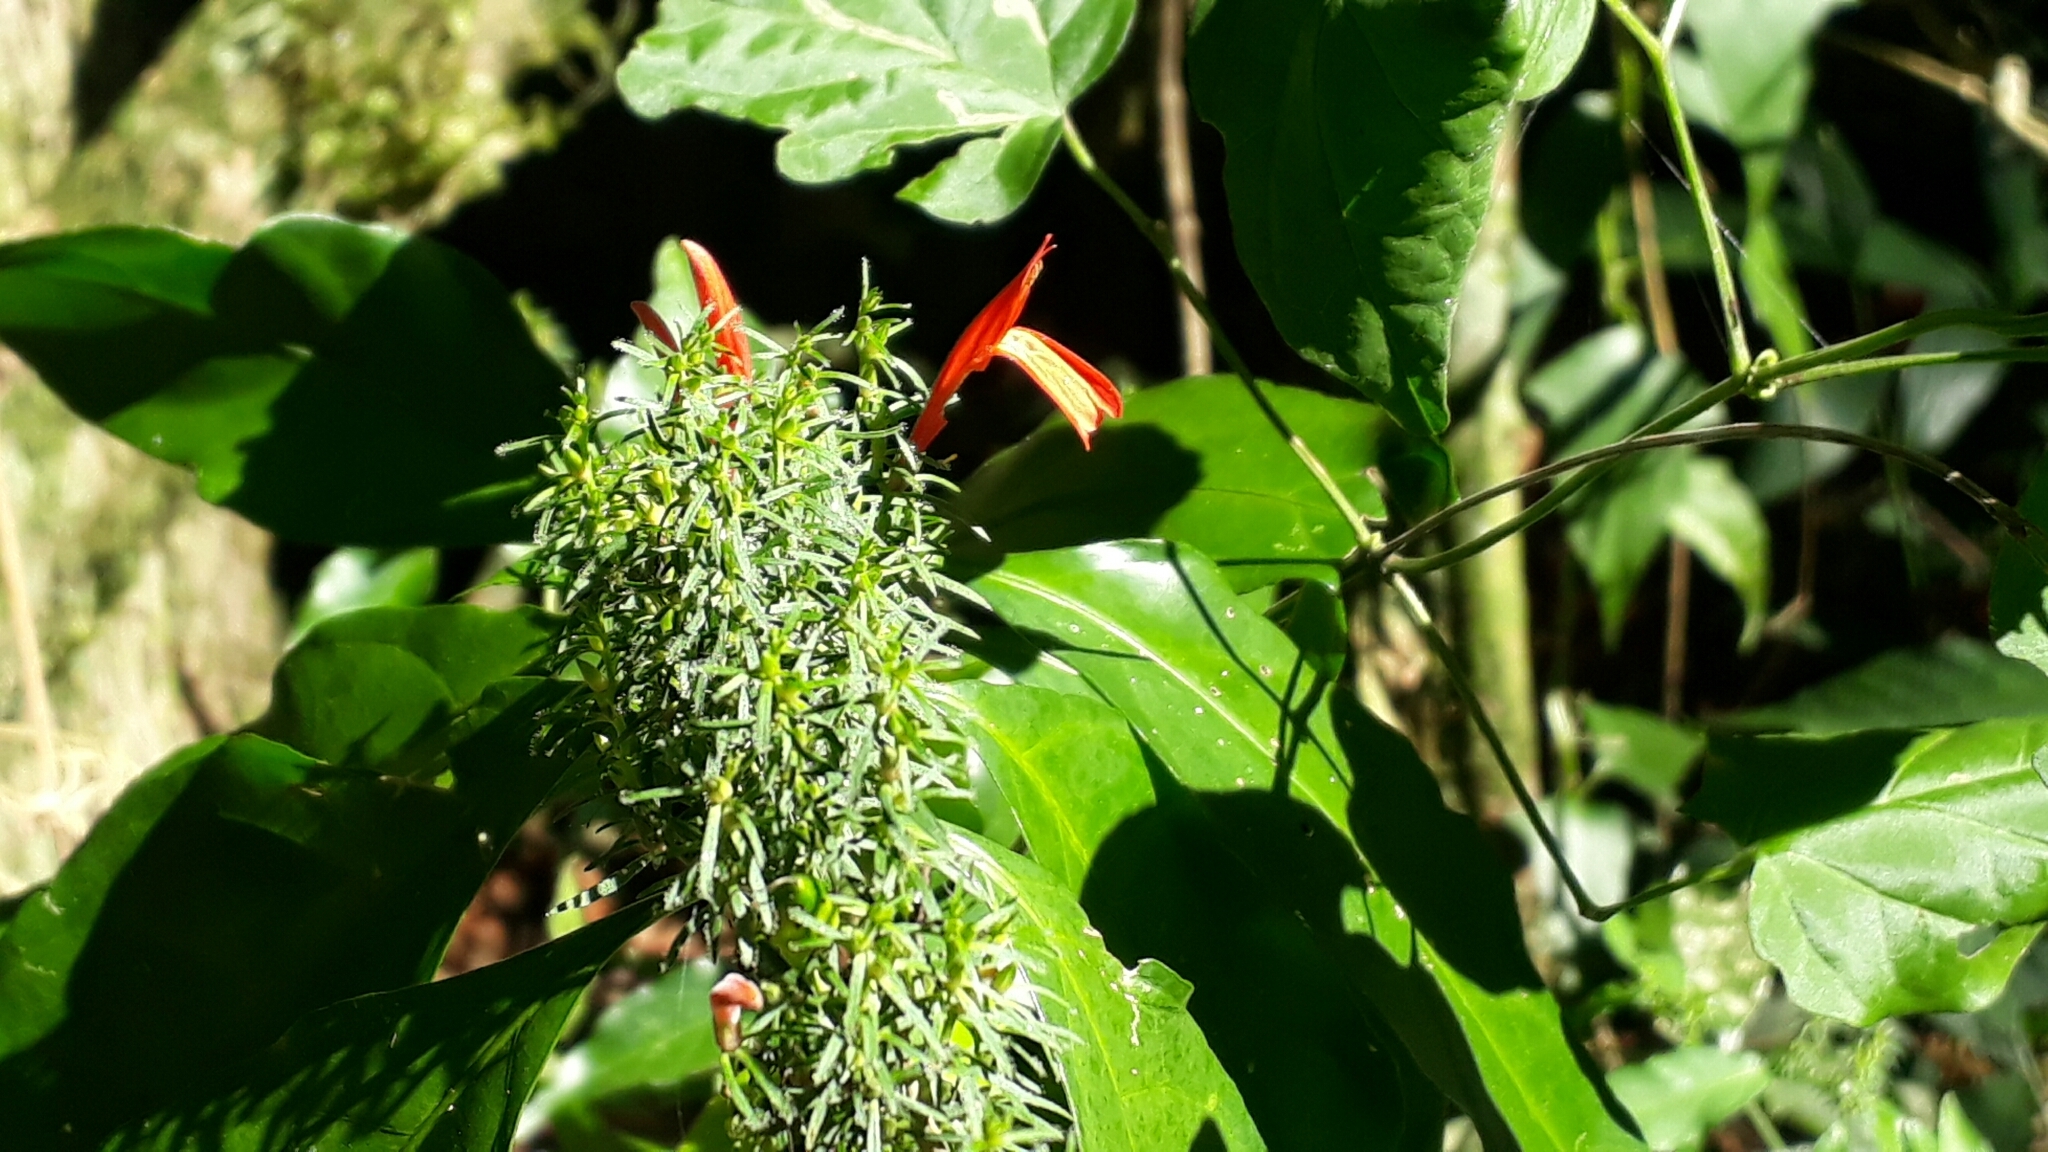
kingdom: Plantae
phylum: Tracheophyta
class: Magnoliopsida
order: Lamiales
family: Acanthaceae
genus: Justicia
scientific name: Justicia brasiliana
